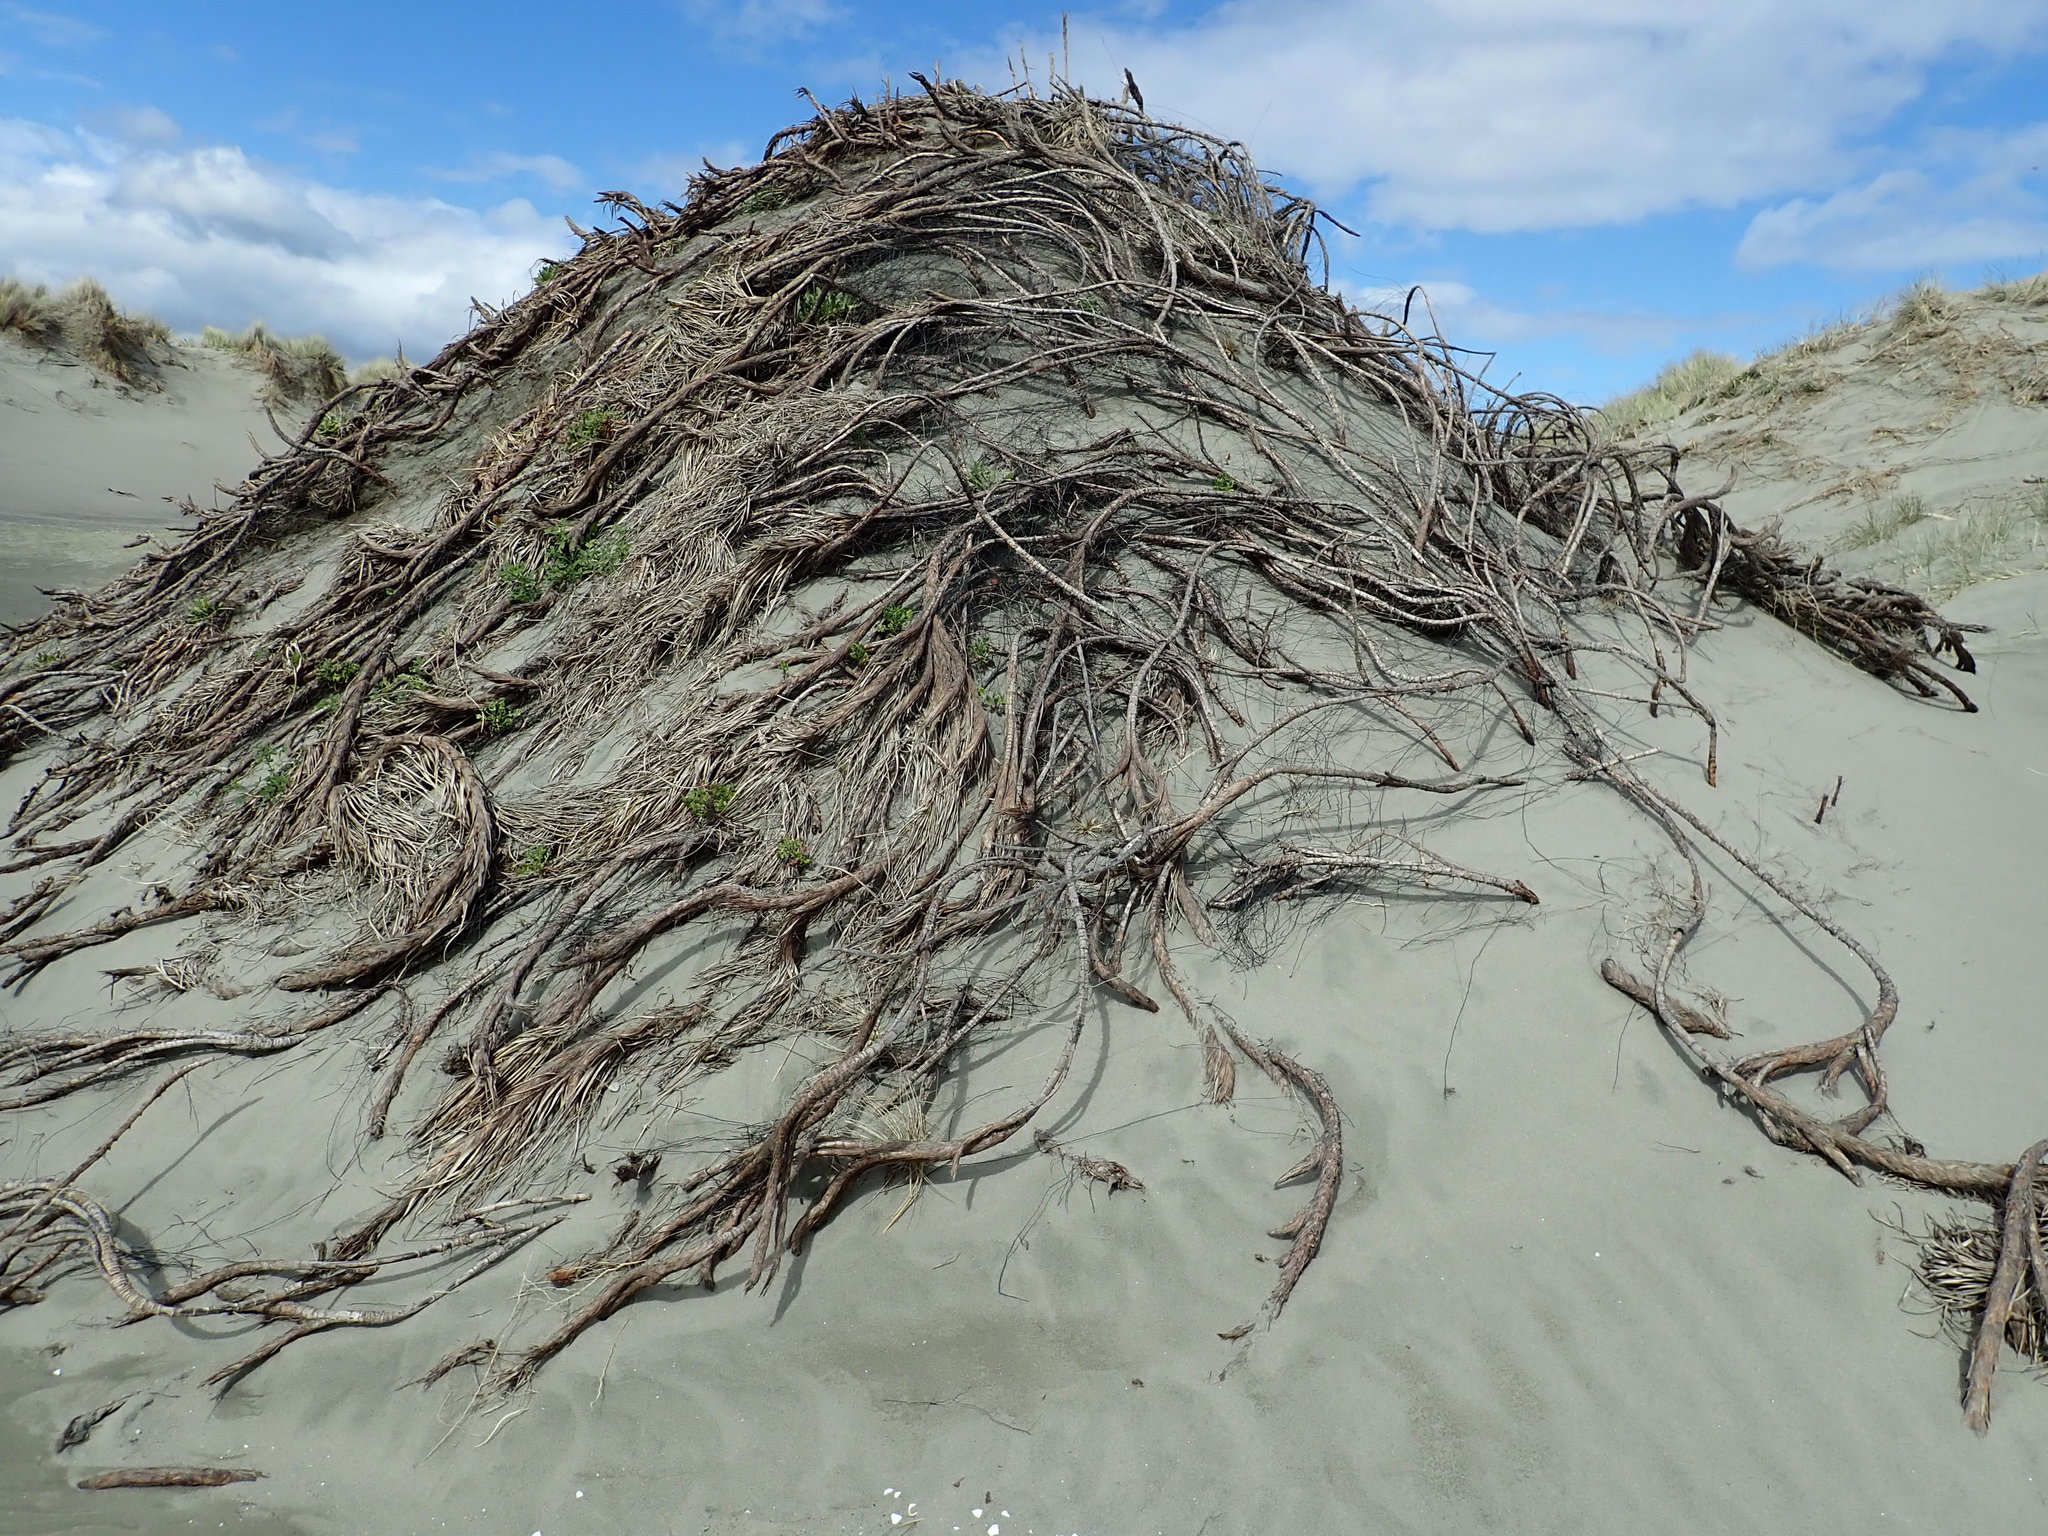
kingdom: Plantae
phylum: Tracheophyta
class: Liliopsida
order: Poales
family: Cyperaceae
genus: Ficinia
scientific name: Ficinia spiralis
